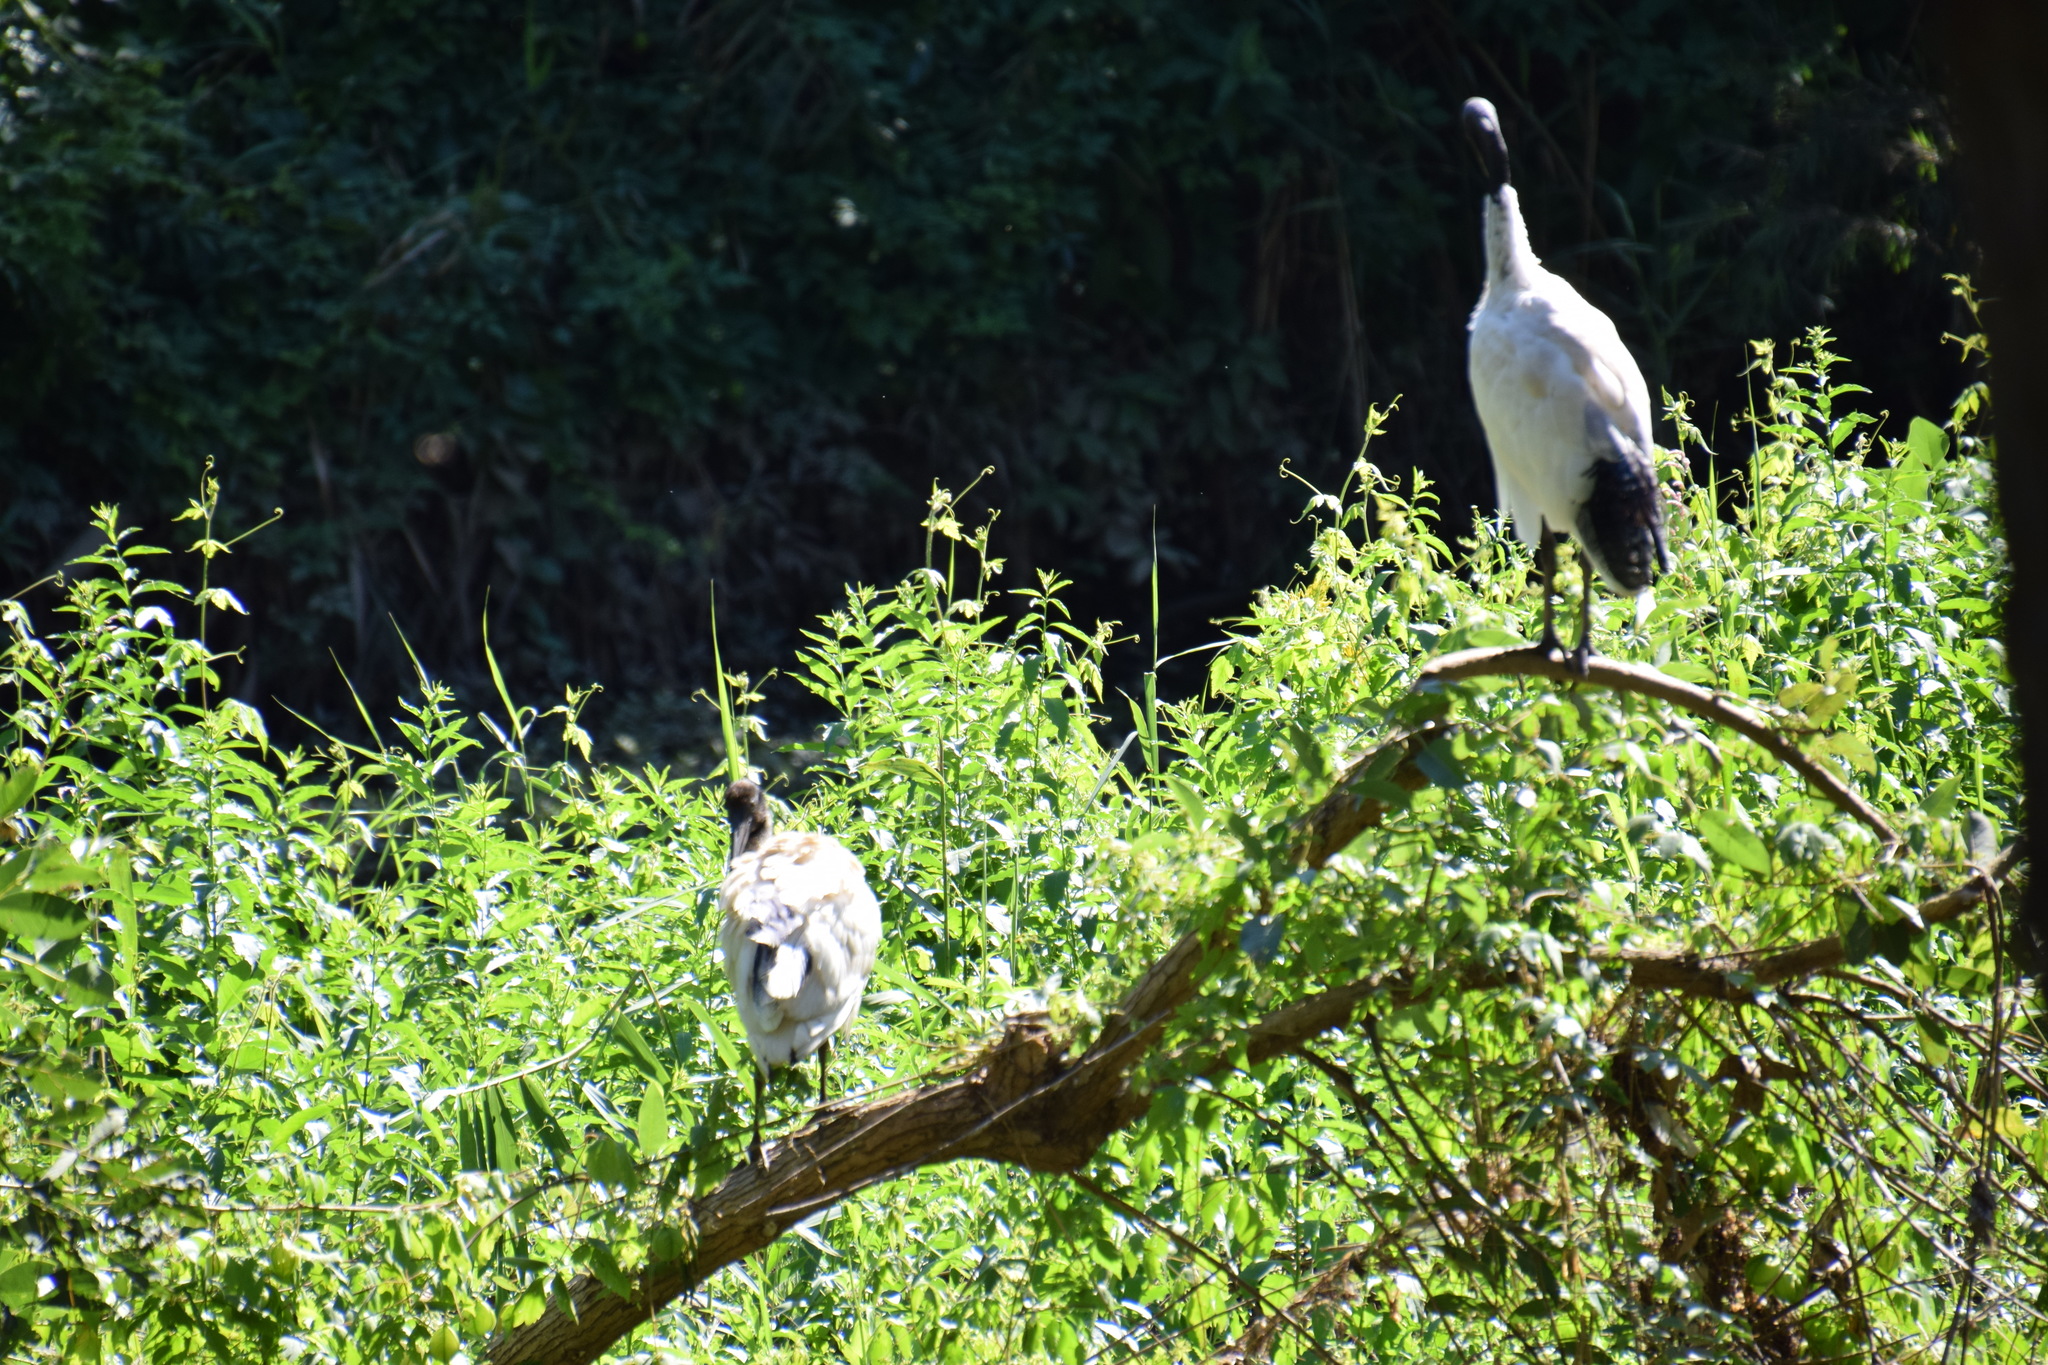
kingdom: Animalia
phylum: Chordata
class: Aves
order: Pelecaniformes
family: Threskiornithidae
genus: Threskiornis
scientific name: Threskiornis molucca
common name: Australian white ibis
